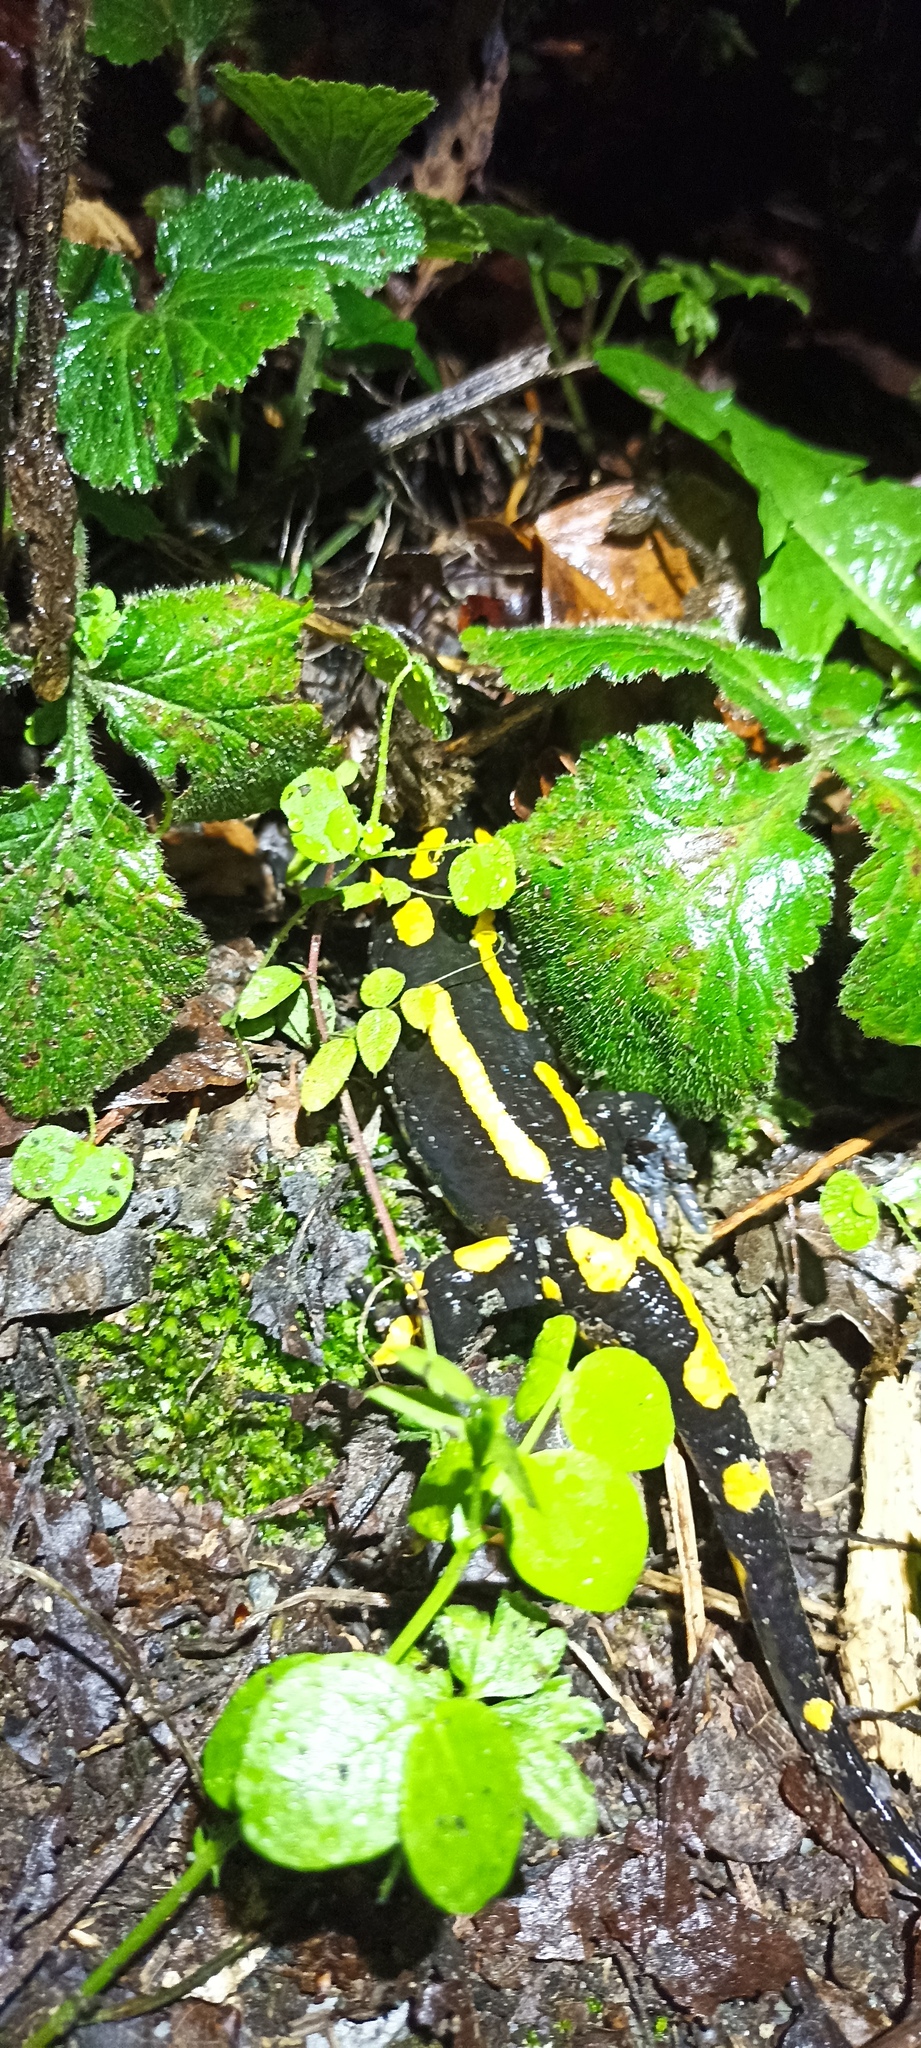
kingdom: Animalia
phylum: Chordata
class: Amphibia
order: Caudata
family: Salamandridae
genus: Salamandra
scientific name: Salamandra salamandra
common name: Fire salamander
